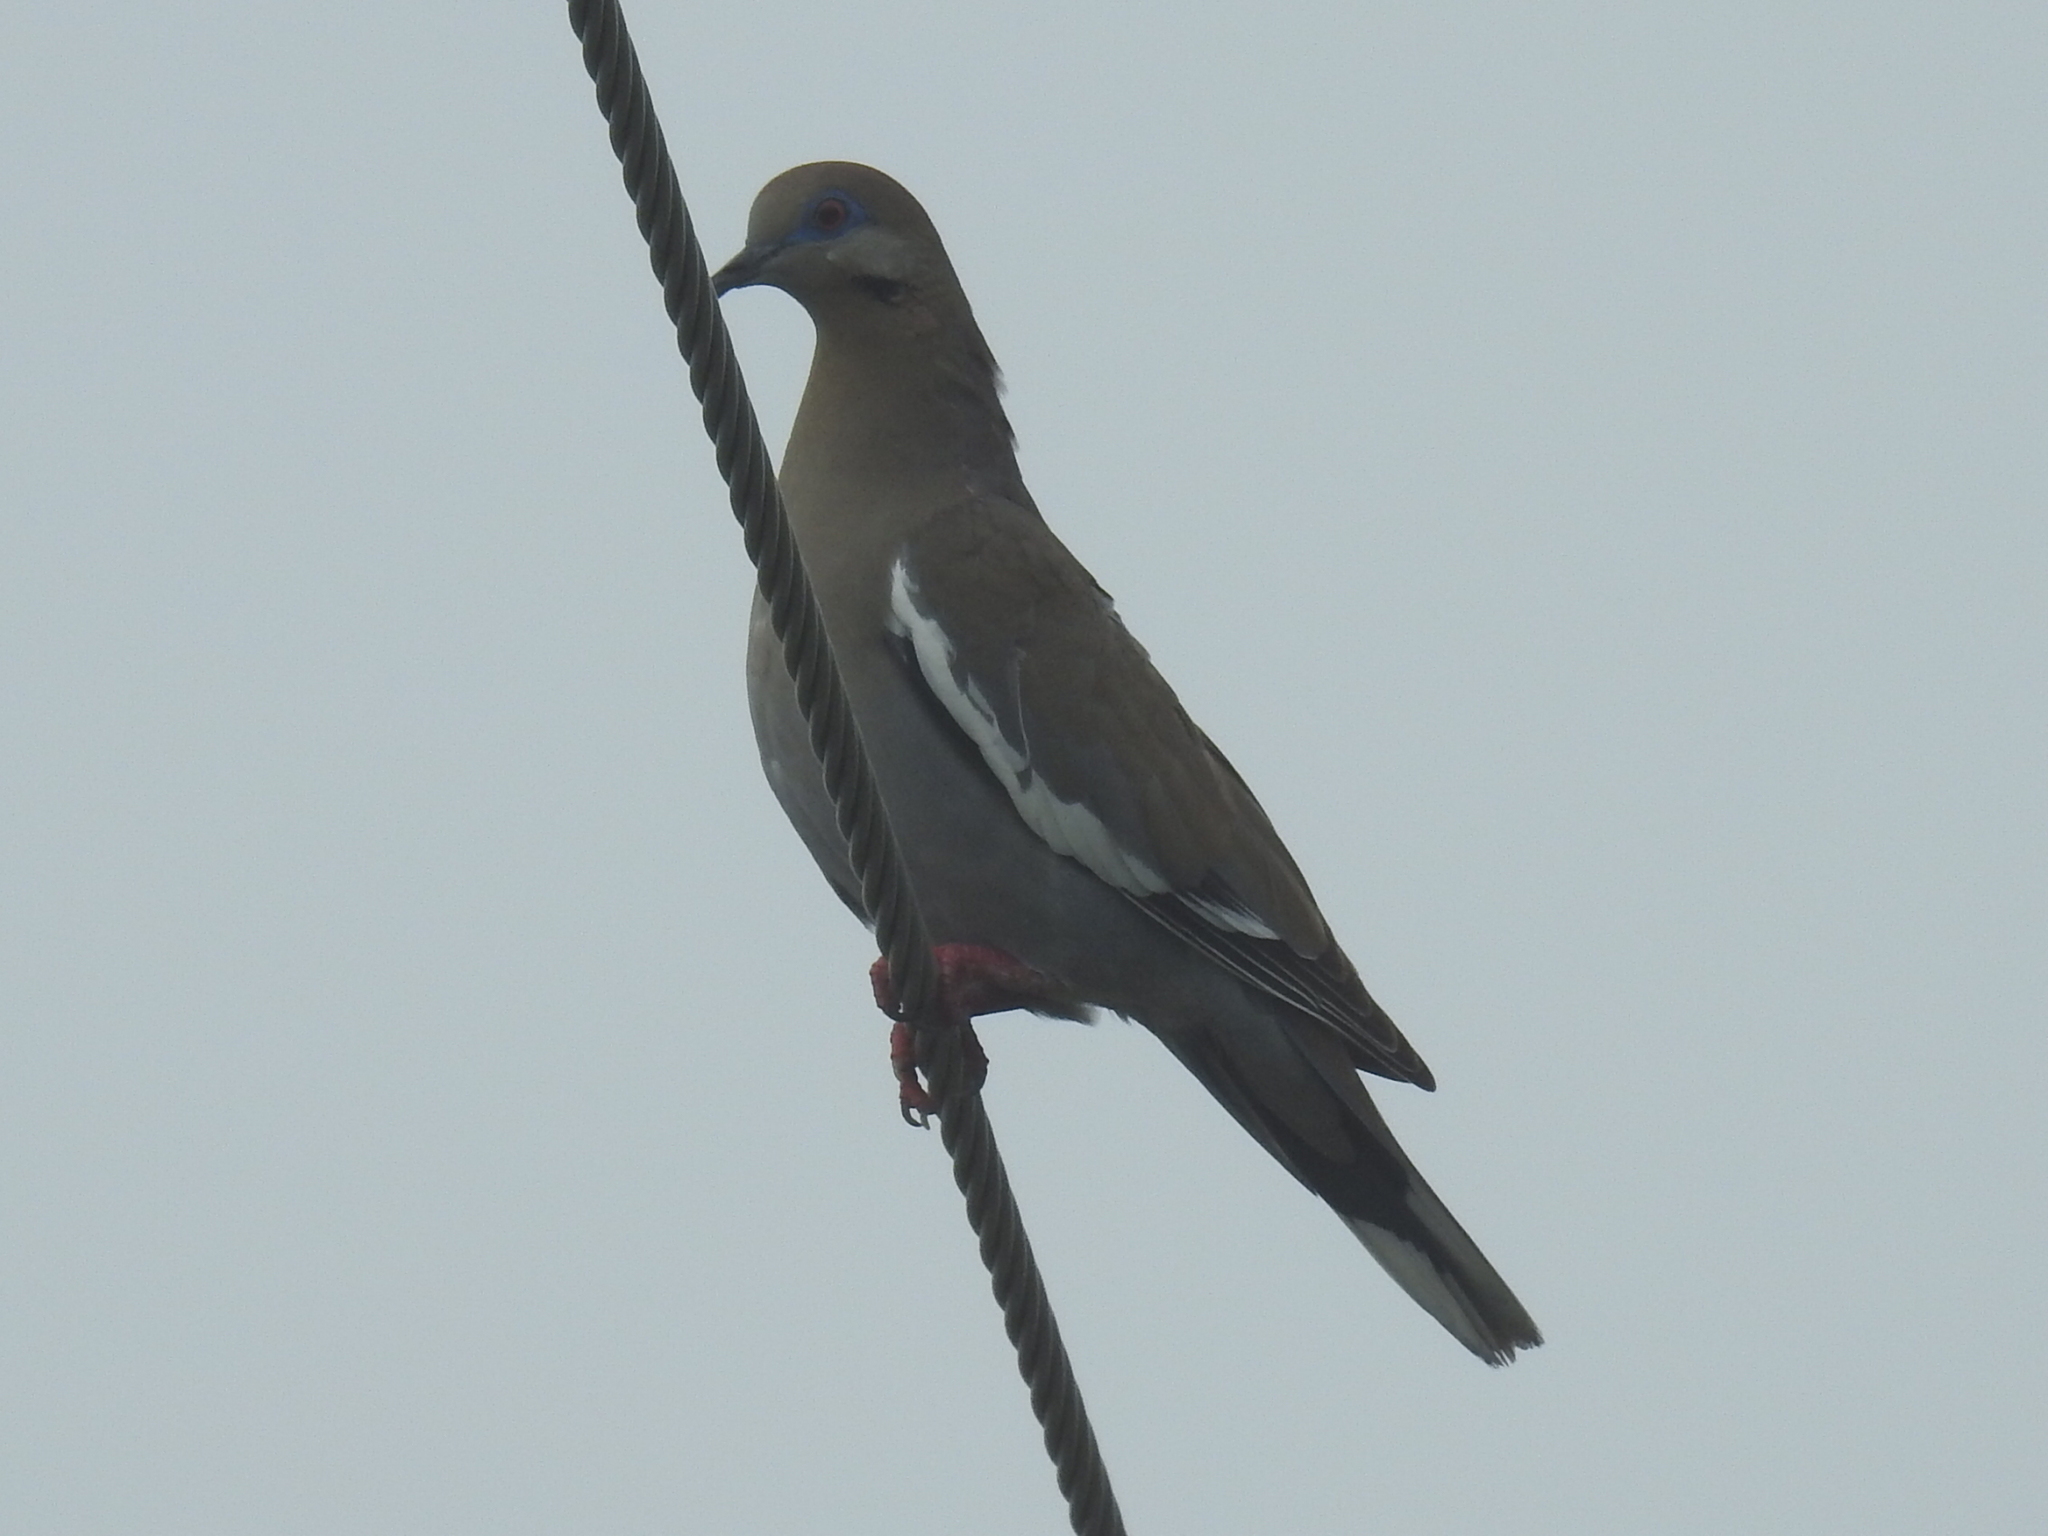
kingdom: Animalia
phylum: Chordata
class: Aves
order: Columbiformes
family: Columbidae
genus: Zenaida
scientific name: Zenaida asiatica
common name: White-winged dove
